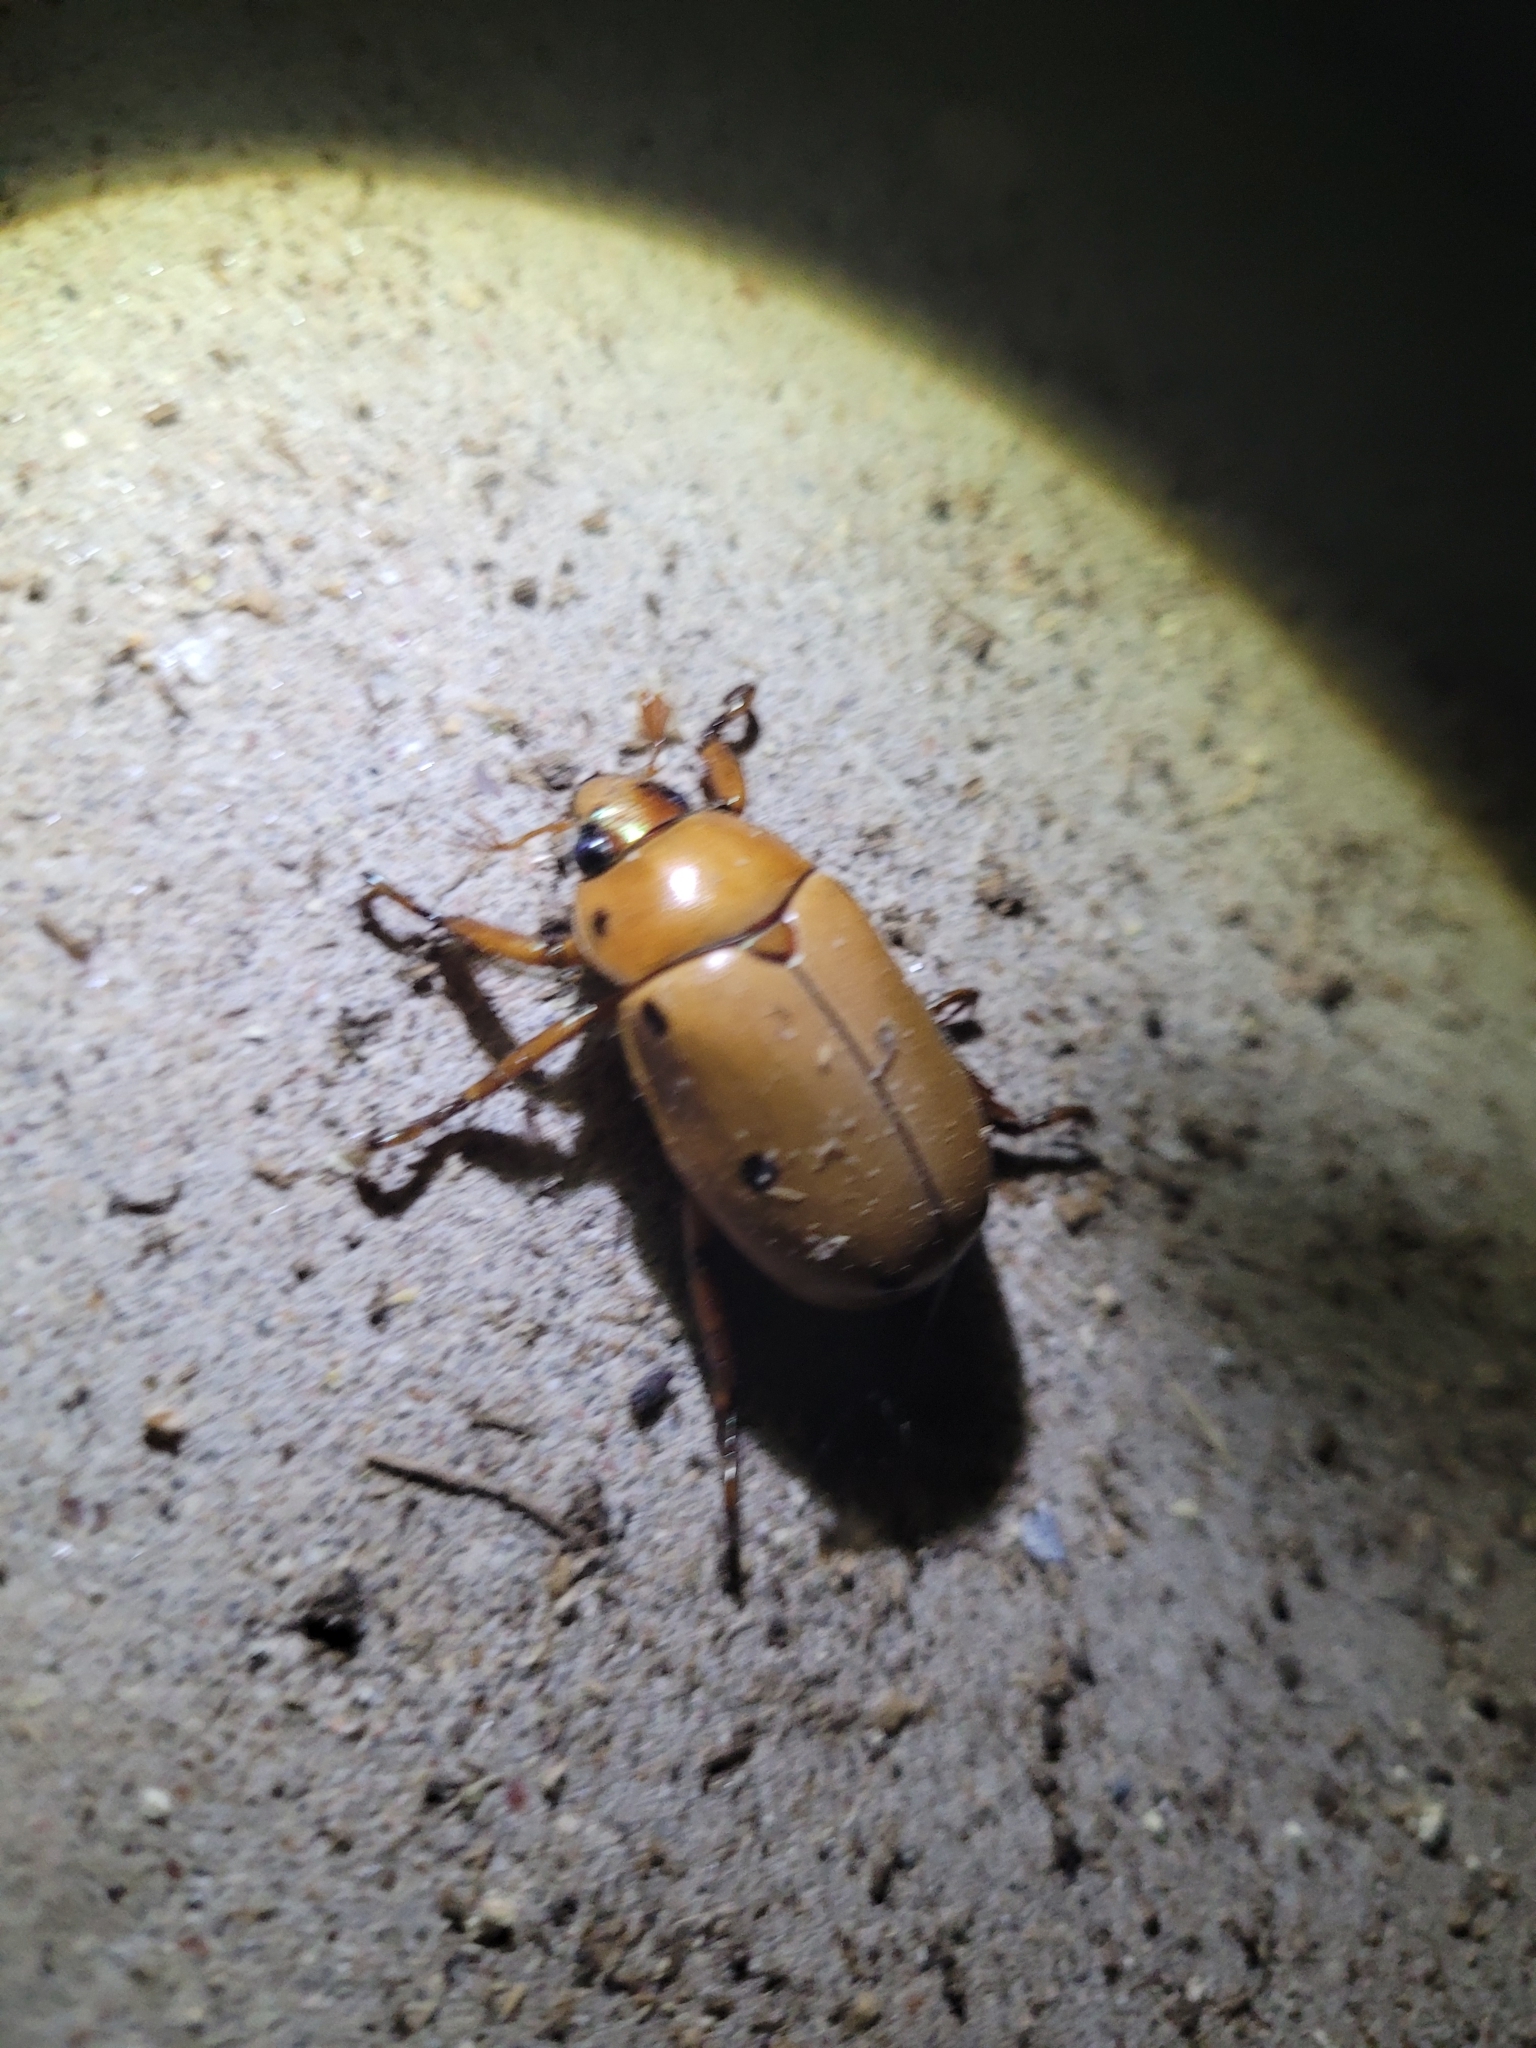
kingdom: Animalia
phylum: Arthropoda
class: Insecta
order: Coleoptera
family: Scarabaeidae
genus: Pelidnota
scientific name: Pelidnota punctata
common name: Grapevine beetle
